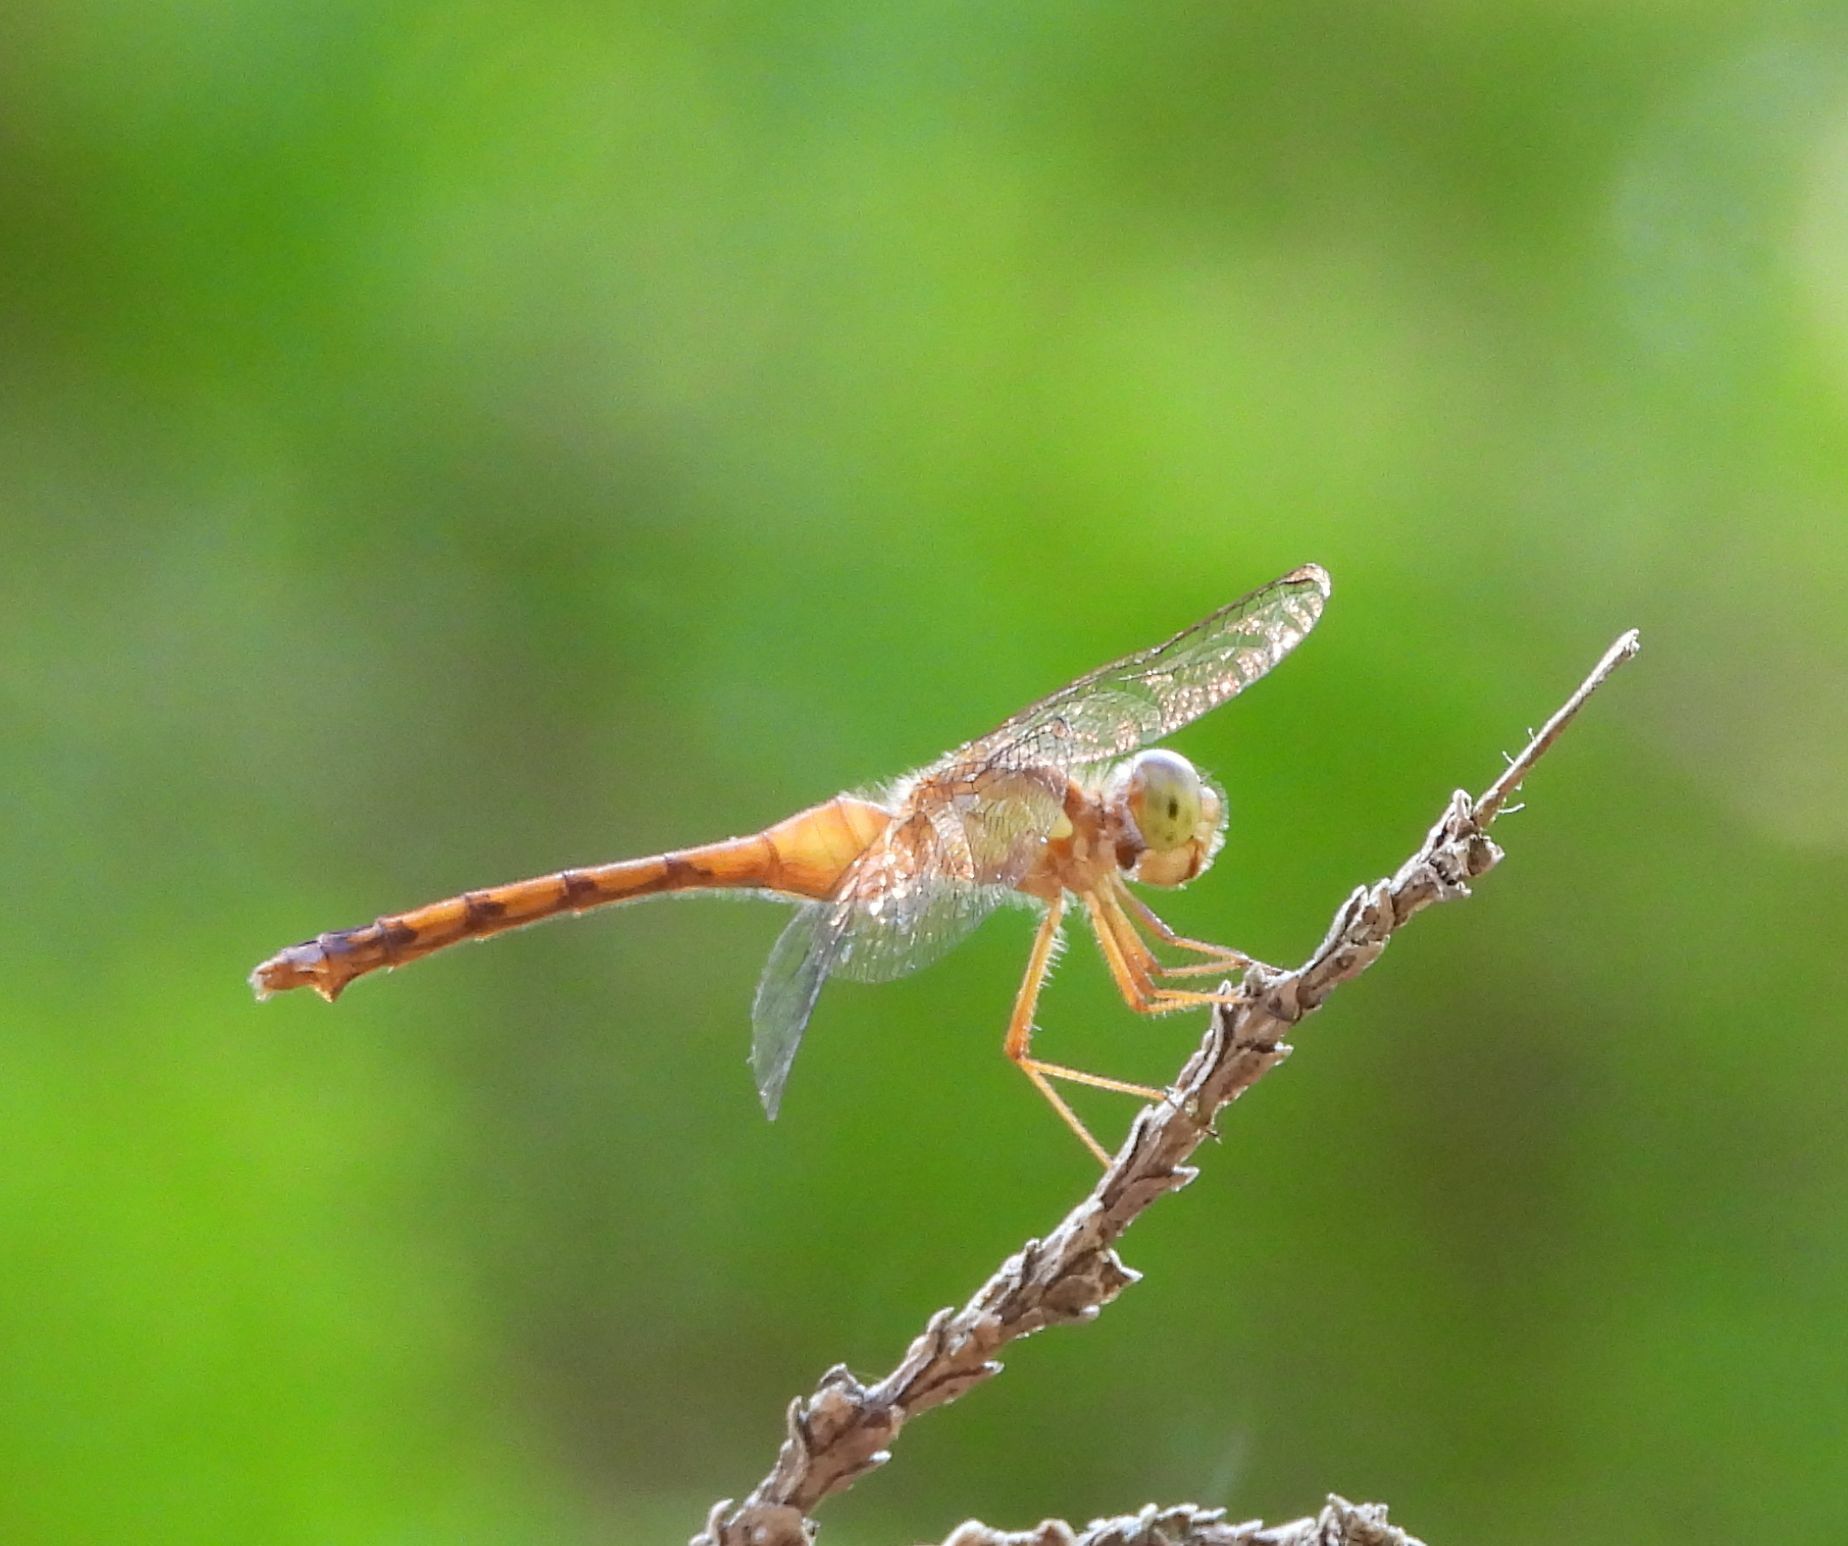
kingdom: Animalia
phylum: Arthropoda
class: Insecta
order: Odonata
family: Libellulidae
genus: Sympetrum
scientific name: Sympetrum vicinum
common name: Autumn meadowhawk
